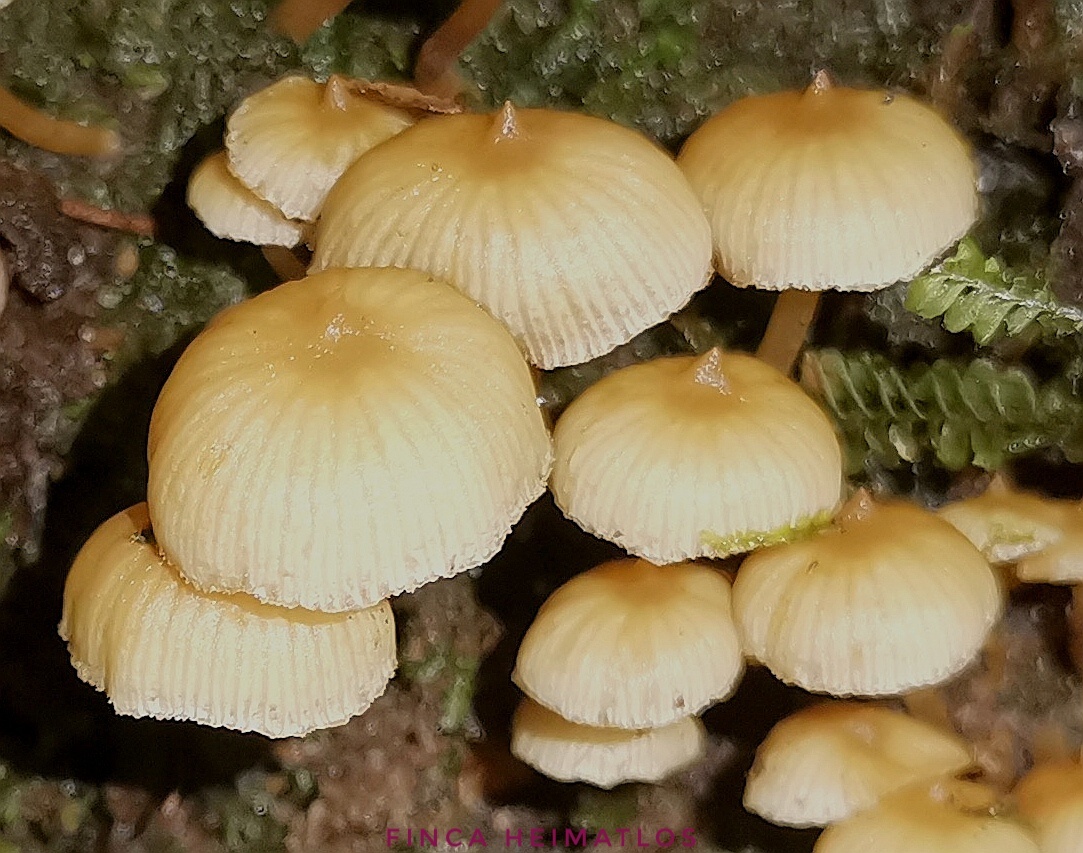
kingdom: Fungi
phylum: Basidiomycota
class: Agaricomycetes
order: Agaricales
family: Hymenogastraceae
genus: Galerina
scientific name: Galerina velutipes
